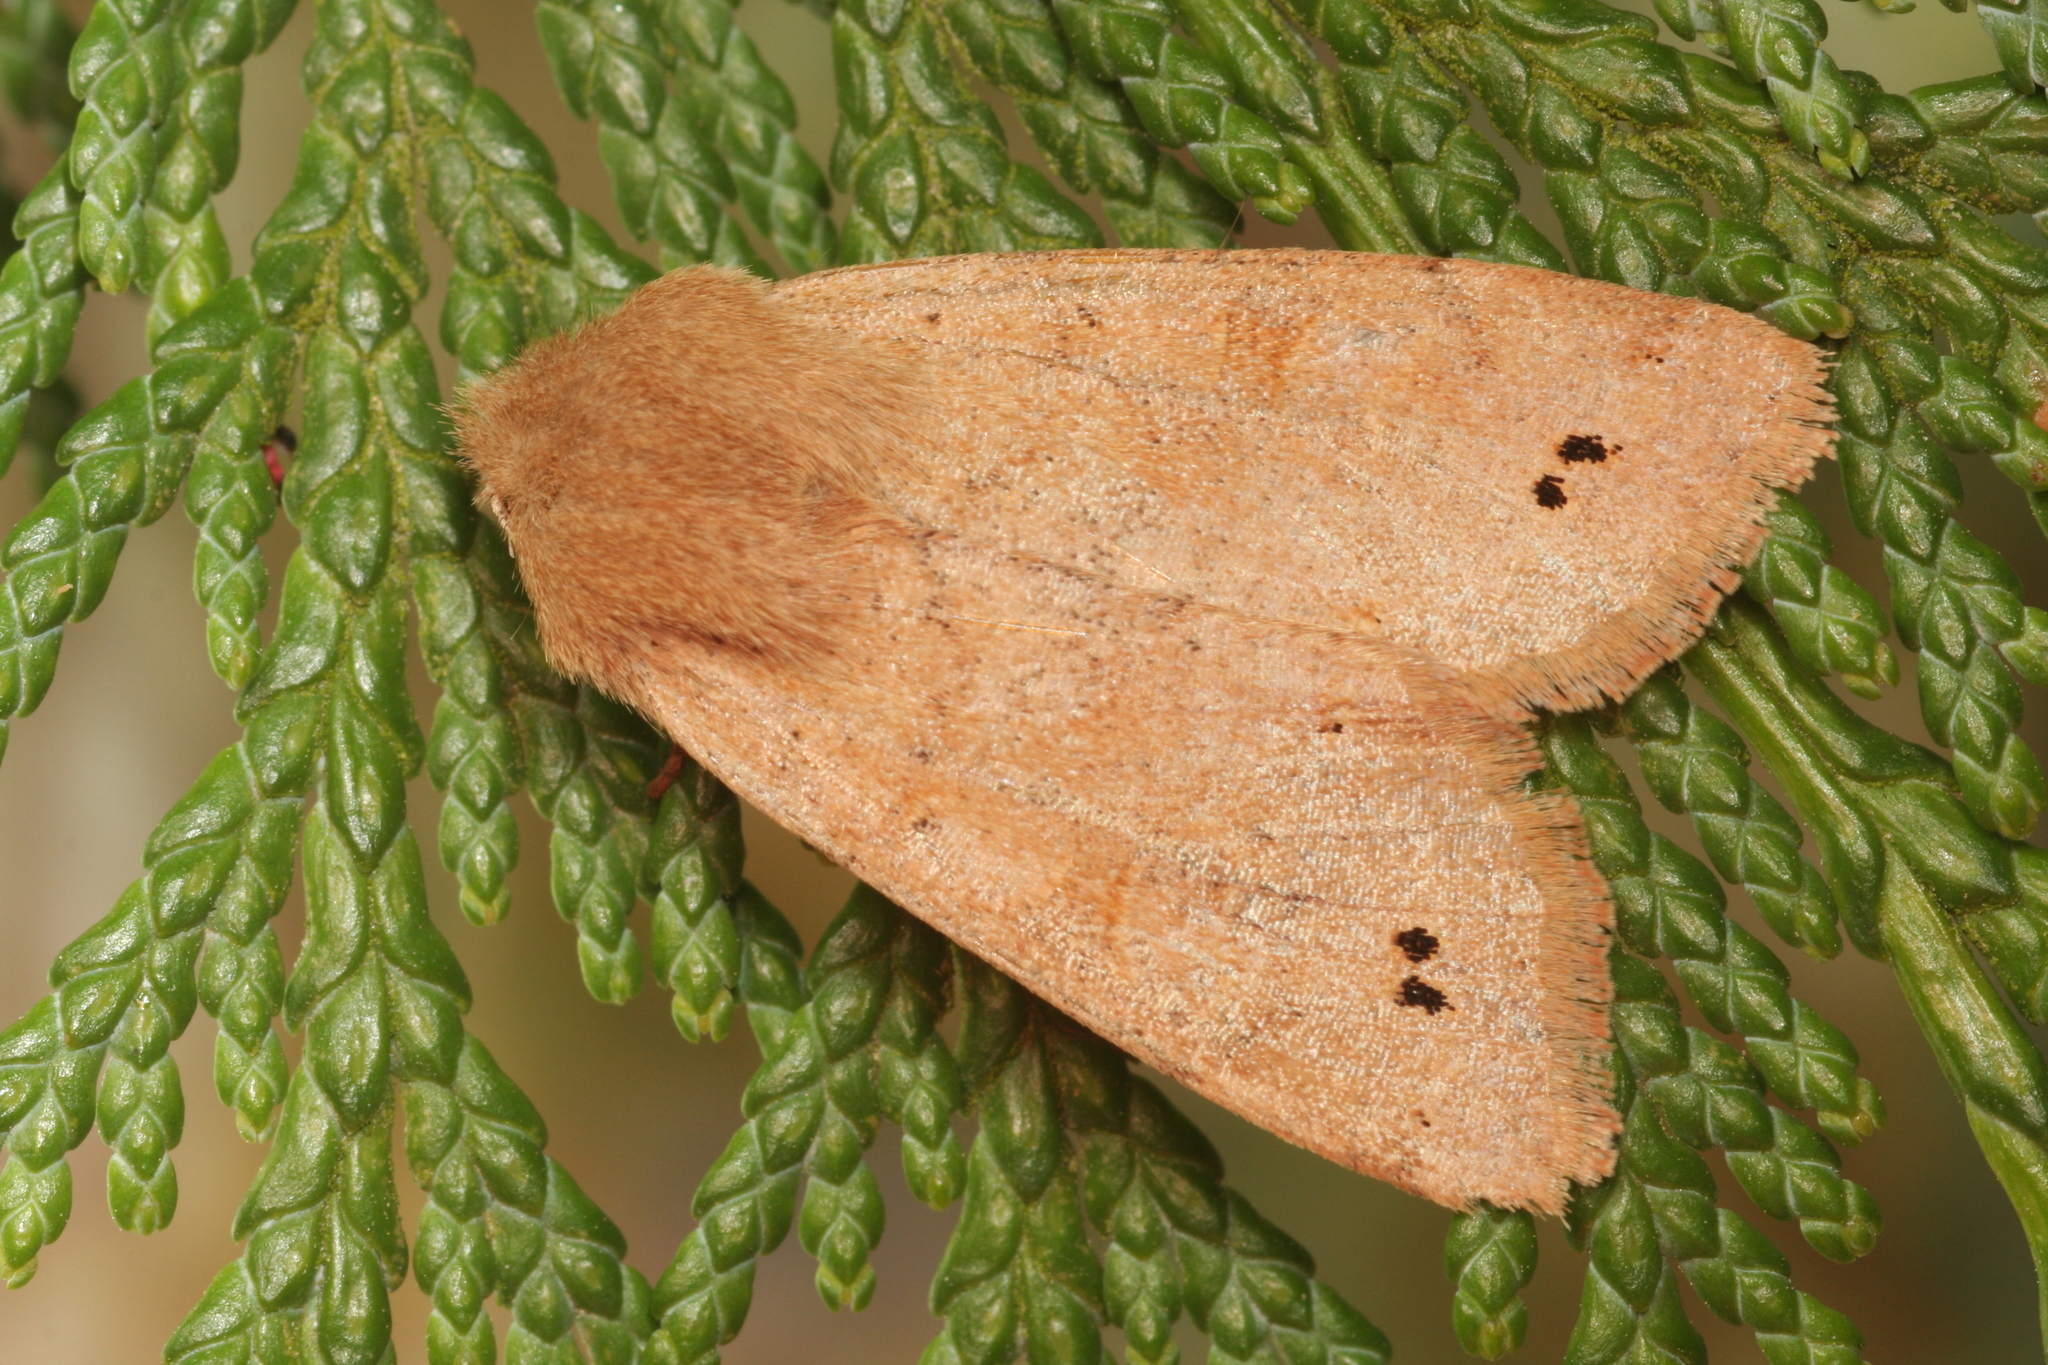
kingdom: Animalia
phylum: Arthropoda
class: Insecta
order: Lepidoptera
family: Noctuidae
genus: Anorthoa
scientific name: Anorthoa munda
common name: Twin-spotted quaker
